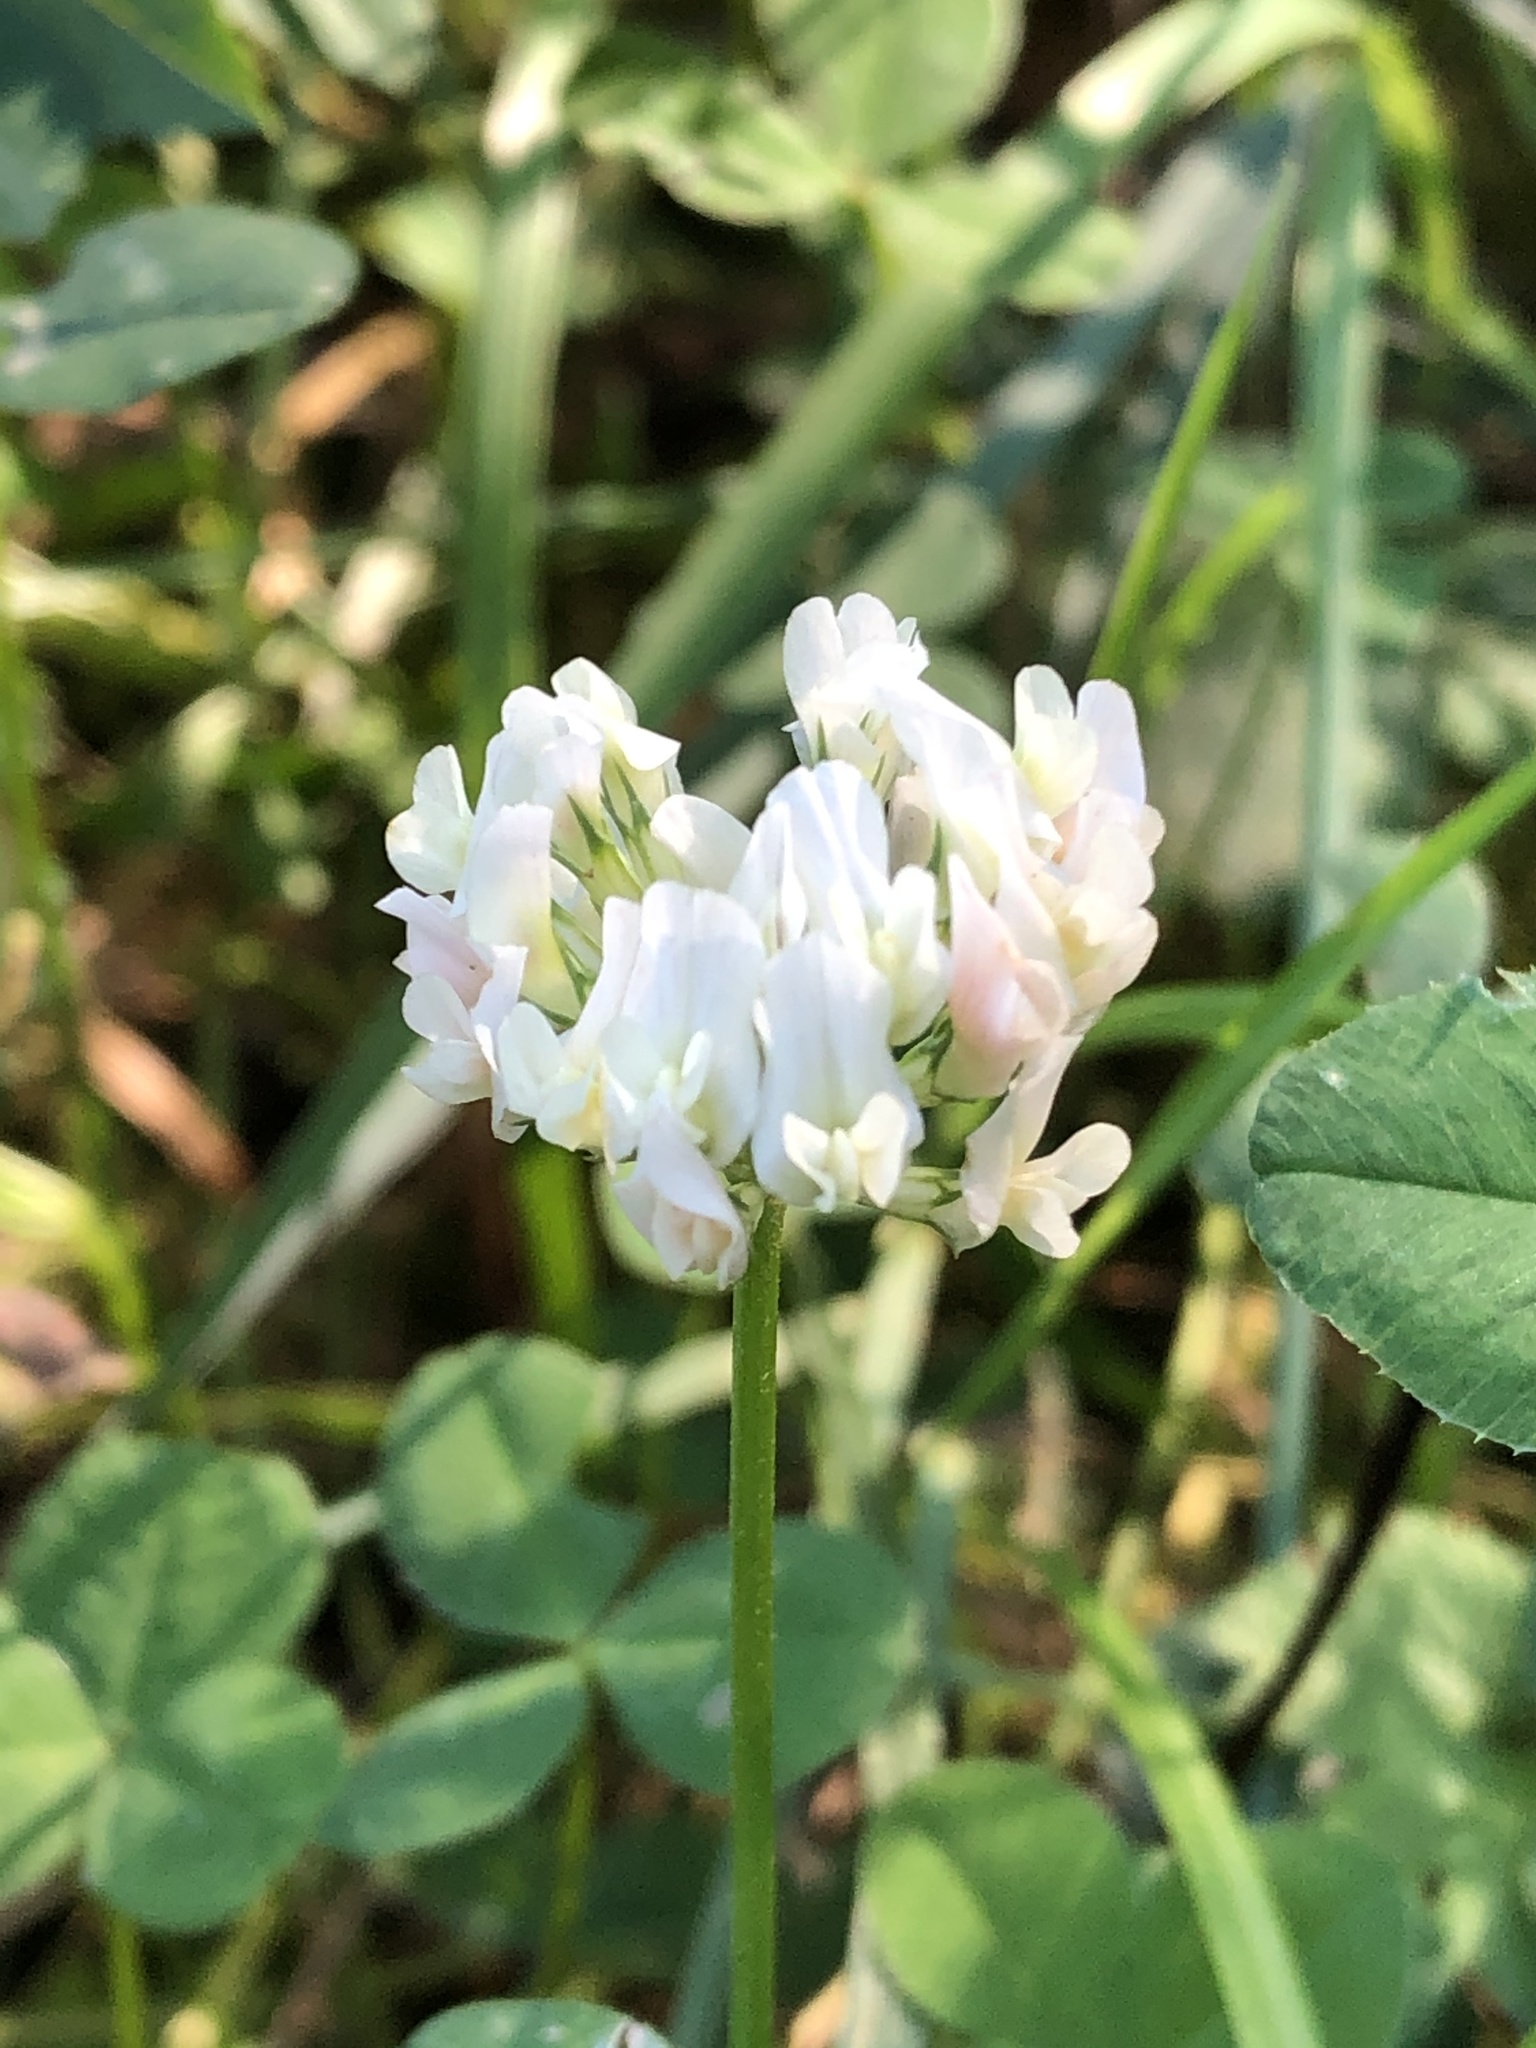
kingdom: Plantae
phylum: Tracheophyta
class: Magnoliopsida
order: Fabales
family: Fabaceae
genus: Trifolium
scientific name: Trifolium repens
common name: White clover
